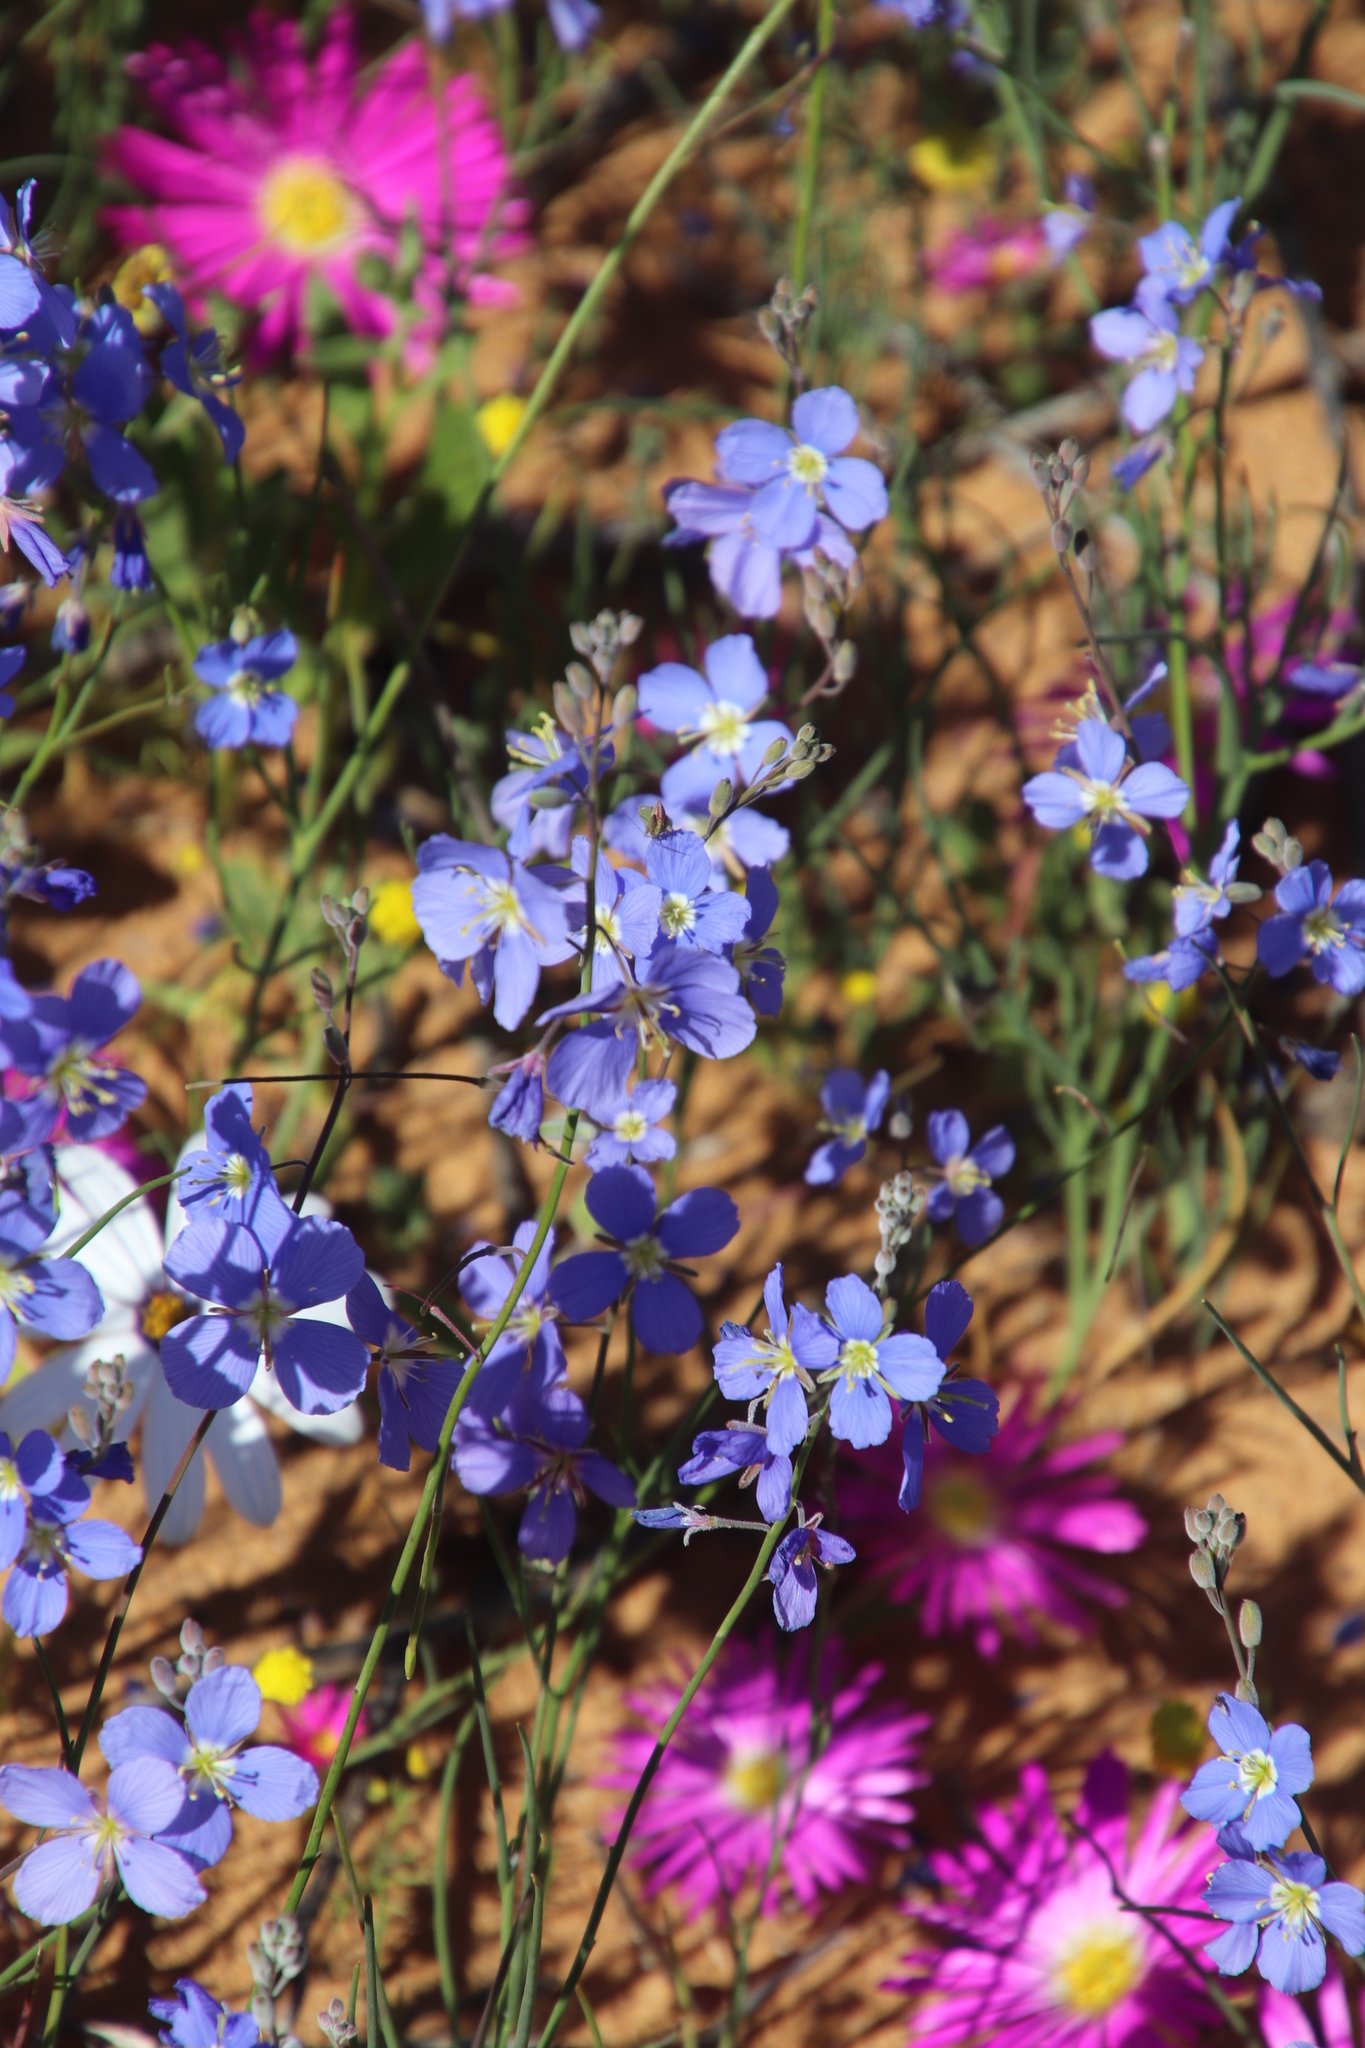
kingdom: Plantae
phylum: Tracheophyta
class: Magnoliopsida
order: Brassicales
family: Brassicaceae
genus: Heliophila
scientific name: Heliophila arenaria
